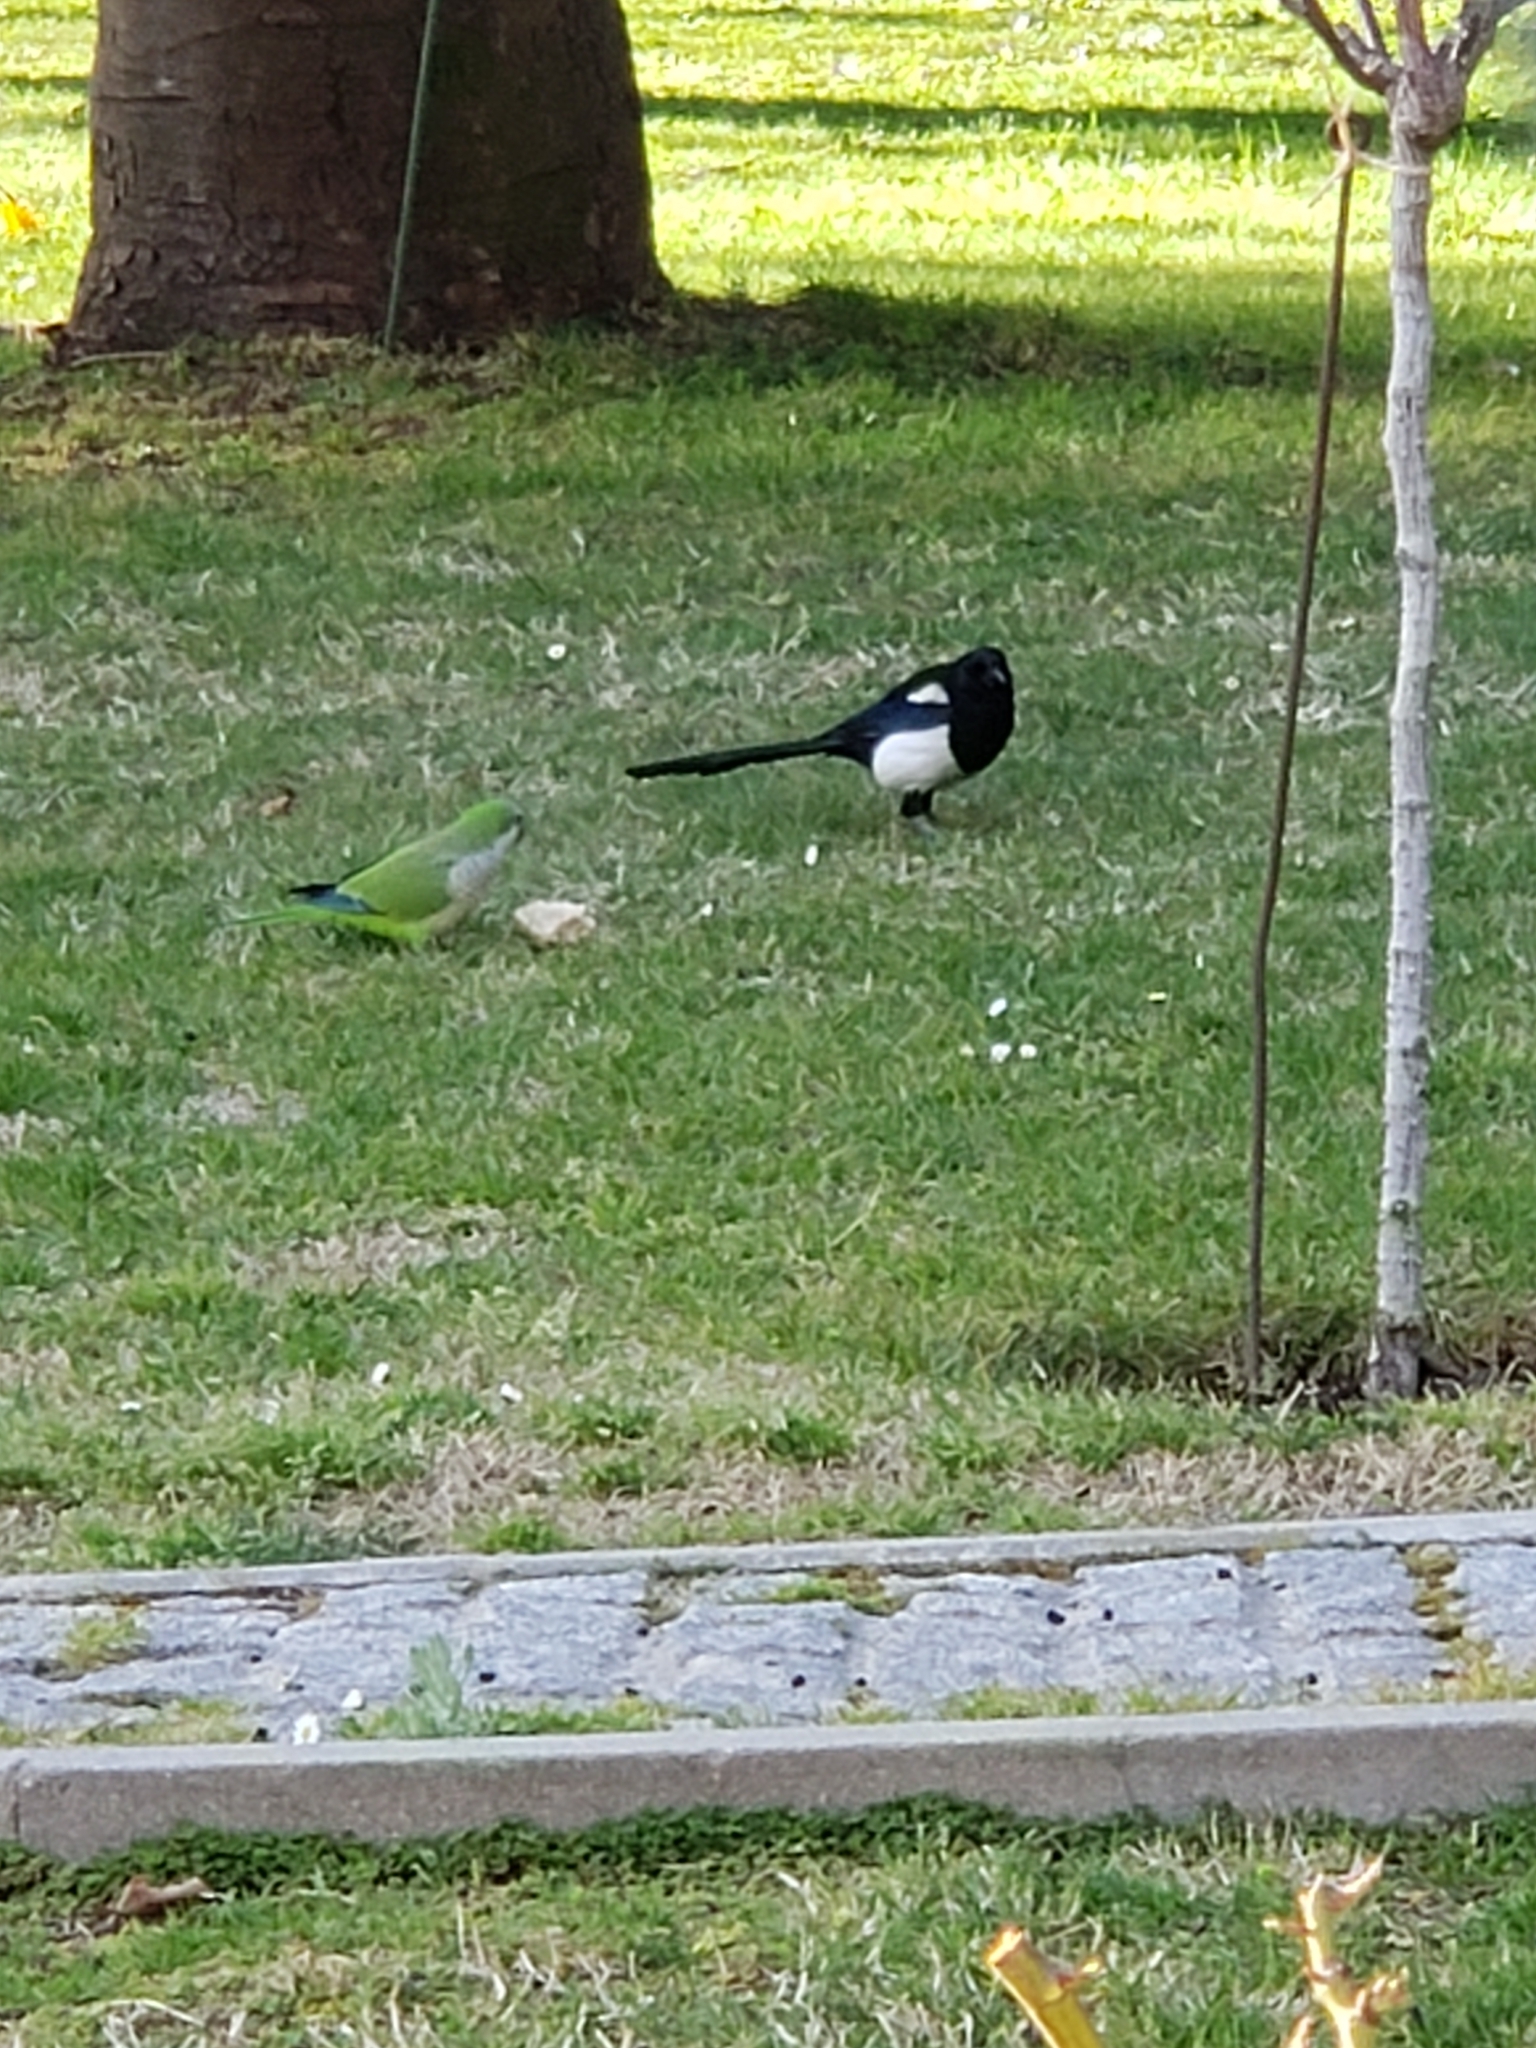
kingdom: Animalia
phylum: Chordata
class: Aves
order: Passeriformes
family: Corvidae
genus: Pica
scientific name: Pica pica
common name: Eurasian magpie
